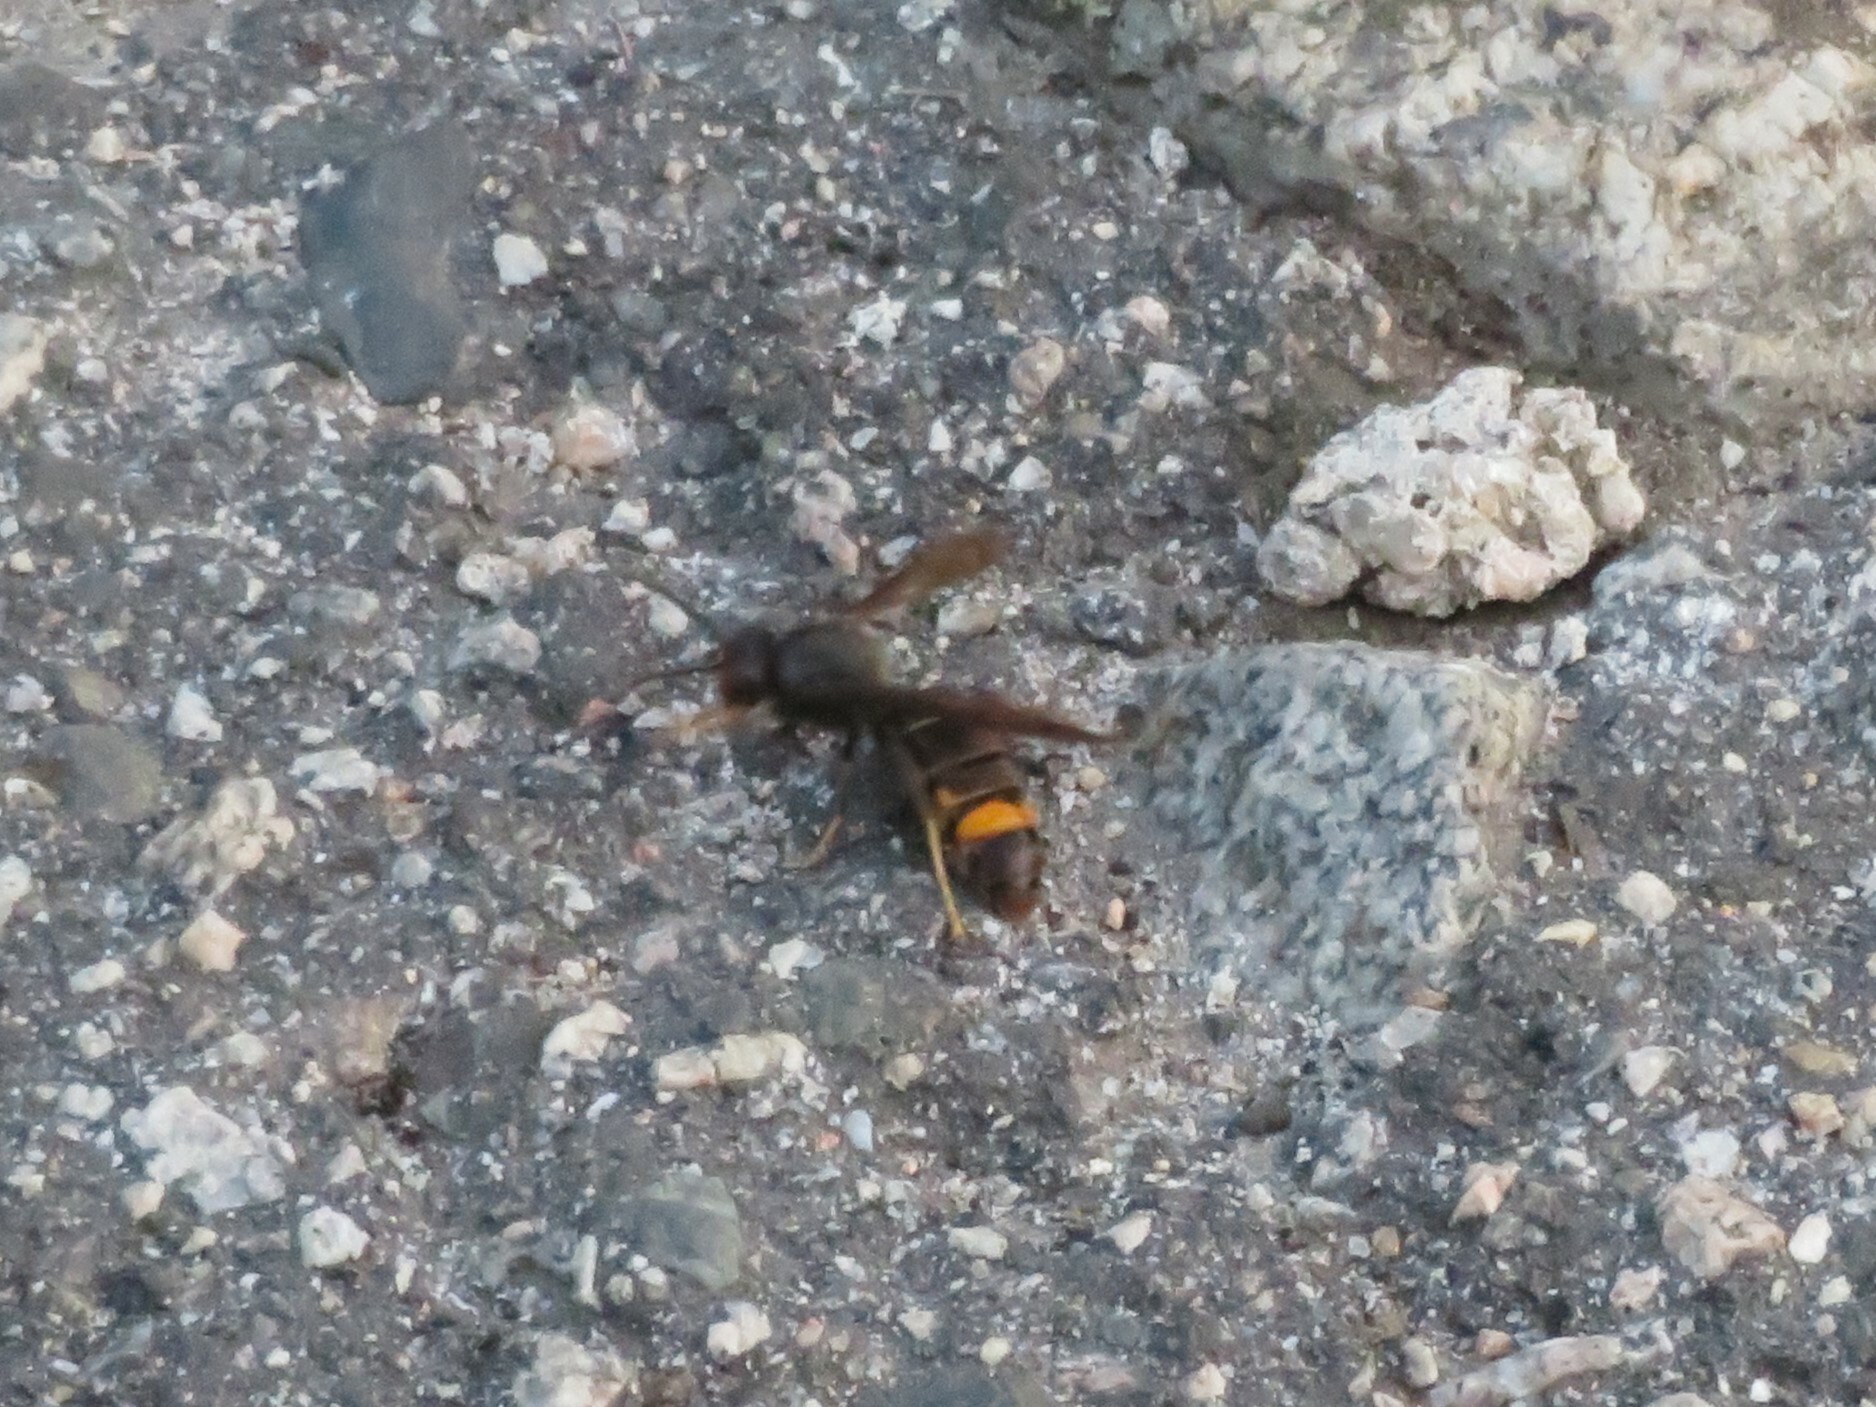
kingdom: Animalia
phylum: Arthropoda
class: Insecta
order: Hymenoptera
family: Vespidae
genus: Vespa
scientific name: Vespa velutina
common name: Asian hornet
